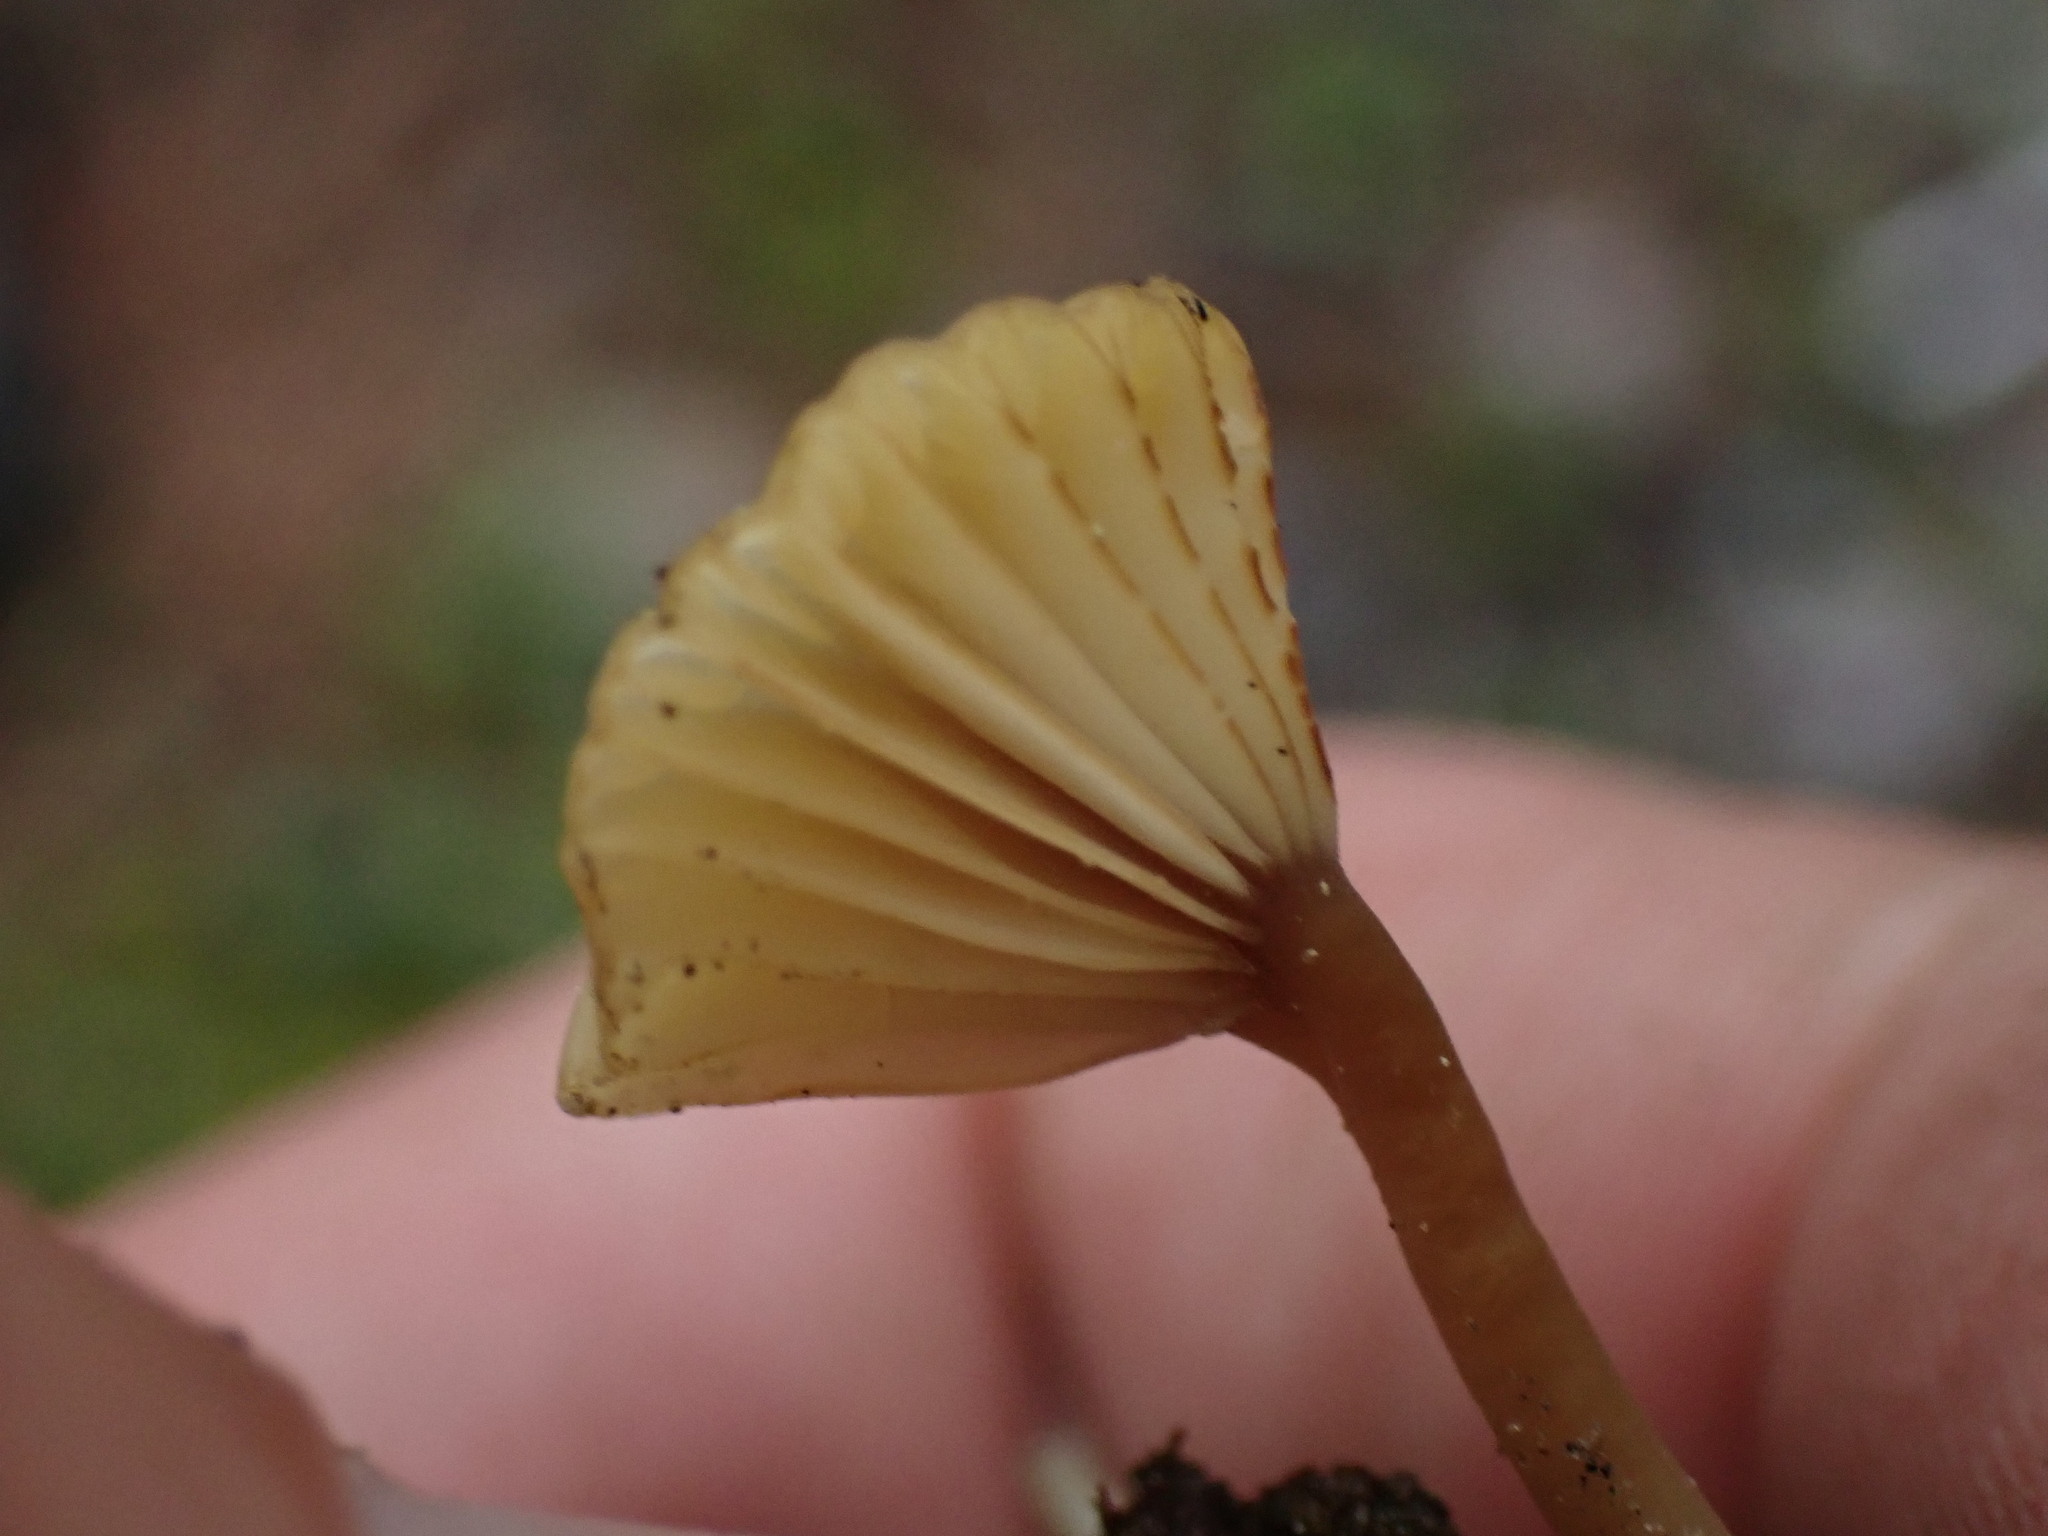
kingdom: Fungi
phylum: Basidiomycota
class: Agaricomycetes
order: Agaricales
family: Hygrophoraceae
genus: Lichenomphalia
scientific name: Lichenomphalia
